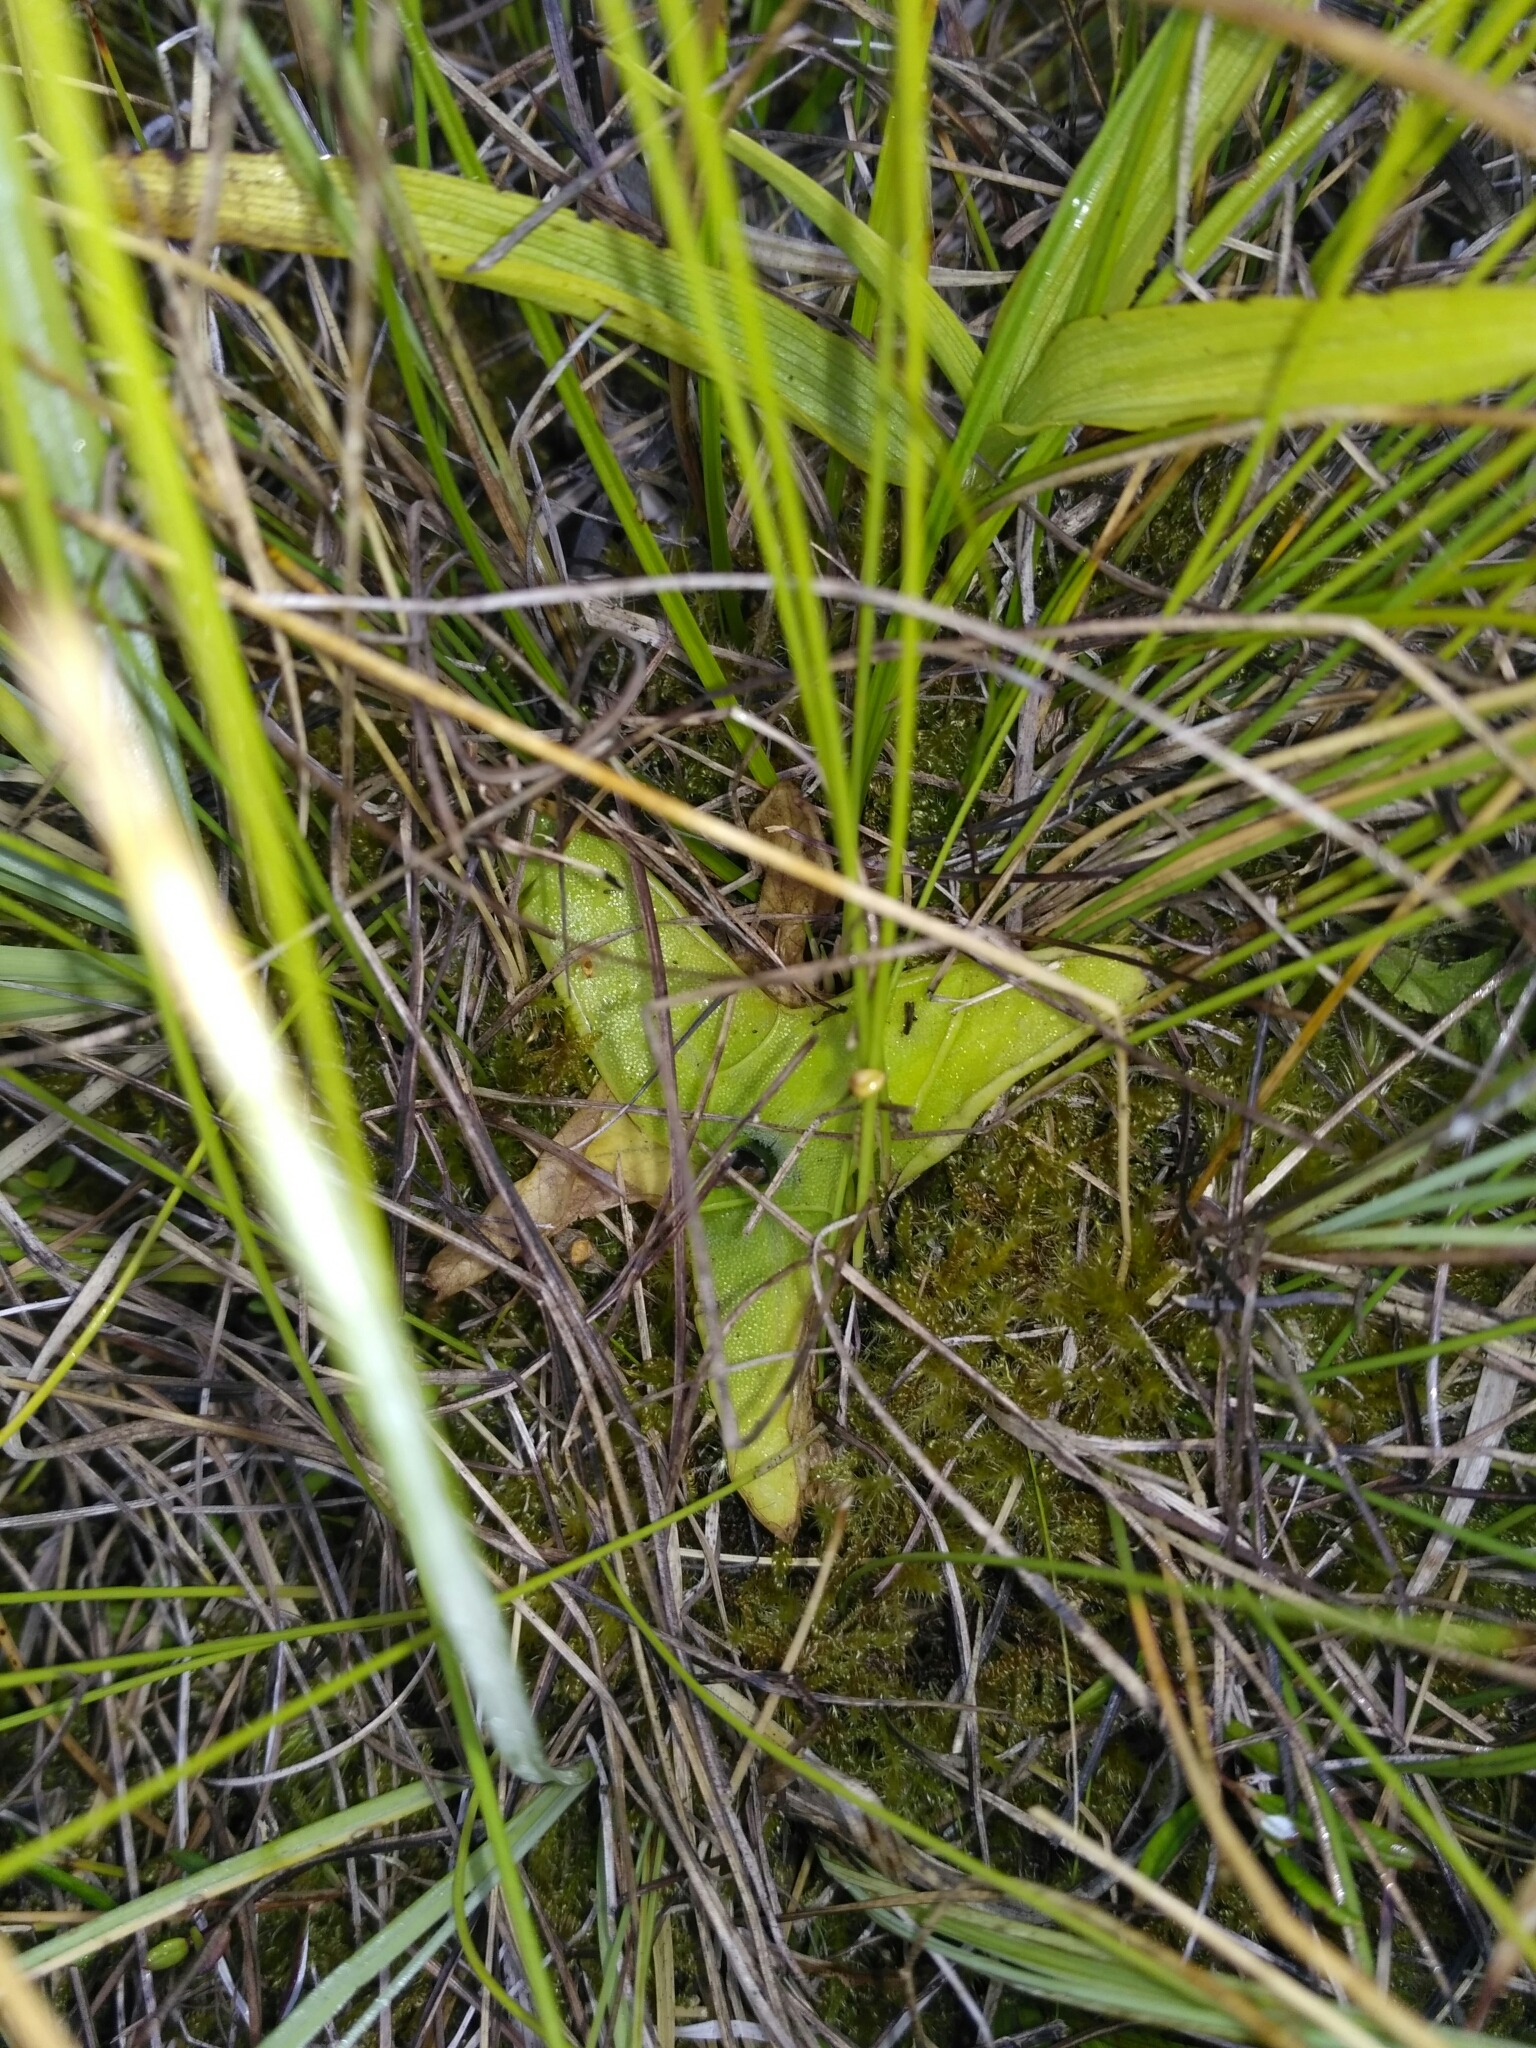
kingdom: Plantae
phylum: Tracheophyta
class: Magnoliopsida
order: Lamiales
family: Lentibulariaceae
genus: Pinguicula
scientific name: Pinguicula vulgaris
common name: Common butterwort
